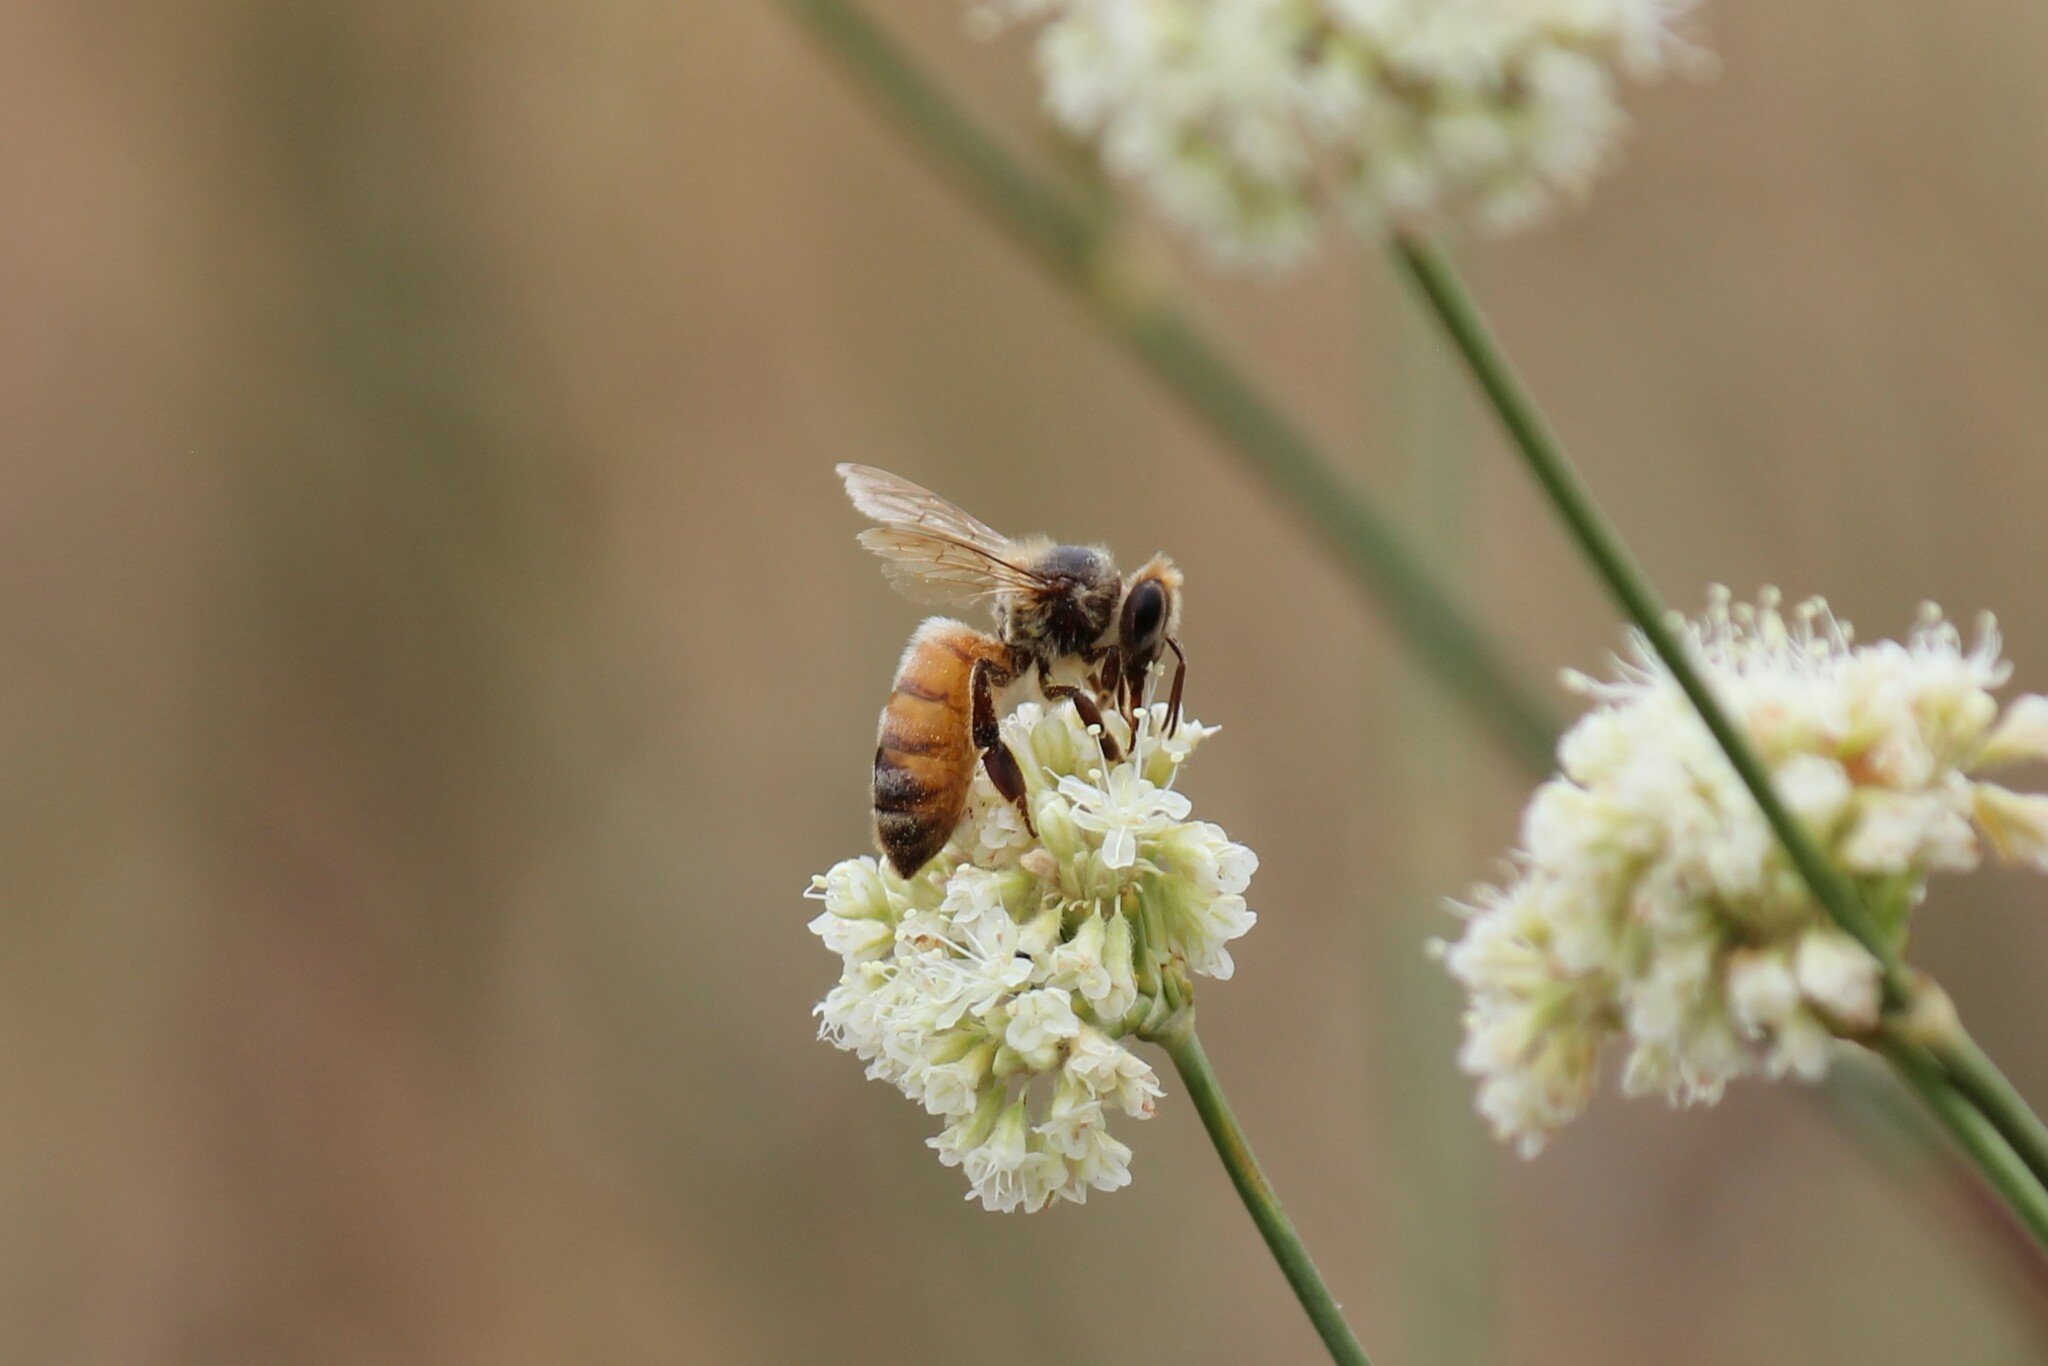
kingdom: Animalia
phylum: Arthropoda
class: Insecta
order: Hymenoptera
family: Apidae
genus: Apis
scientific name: Apis mellifera
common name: Honey bee
